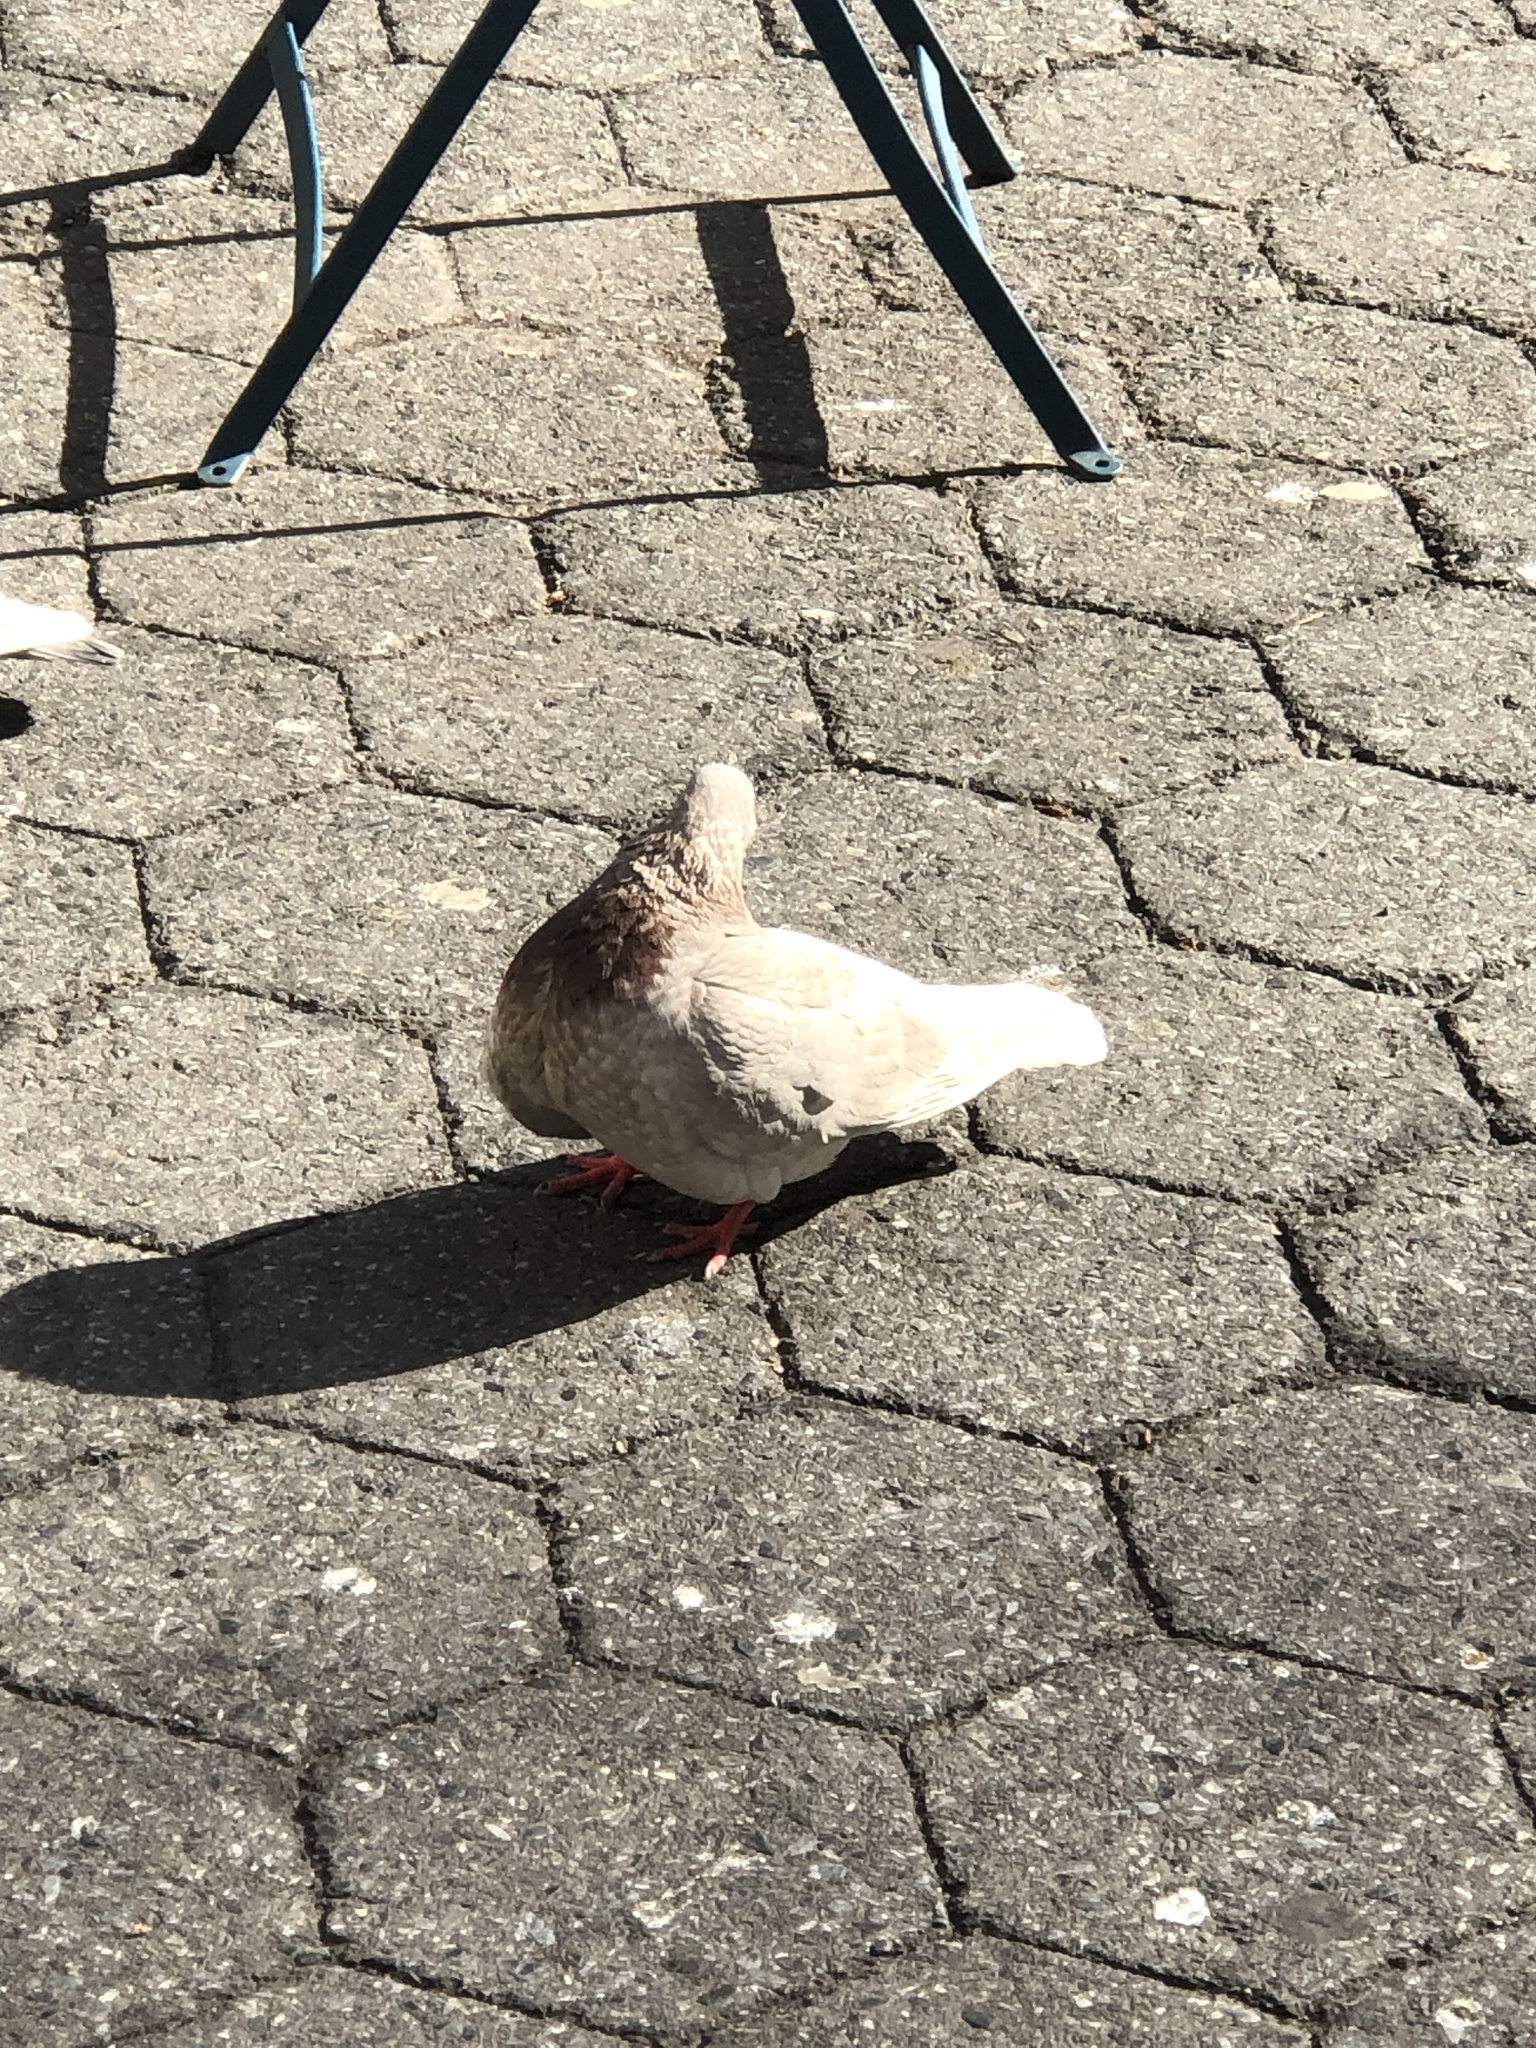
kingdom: Animalia
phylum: Chordata
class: Aves
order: Columbiformes
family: Columbidae
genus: Columba
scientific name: Columba livia
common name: Rock pigeon
